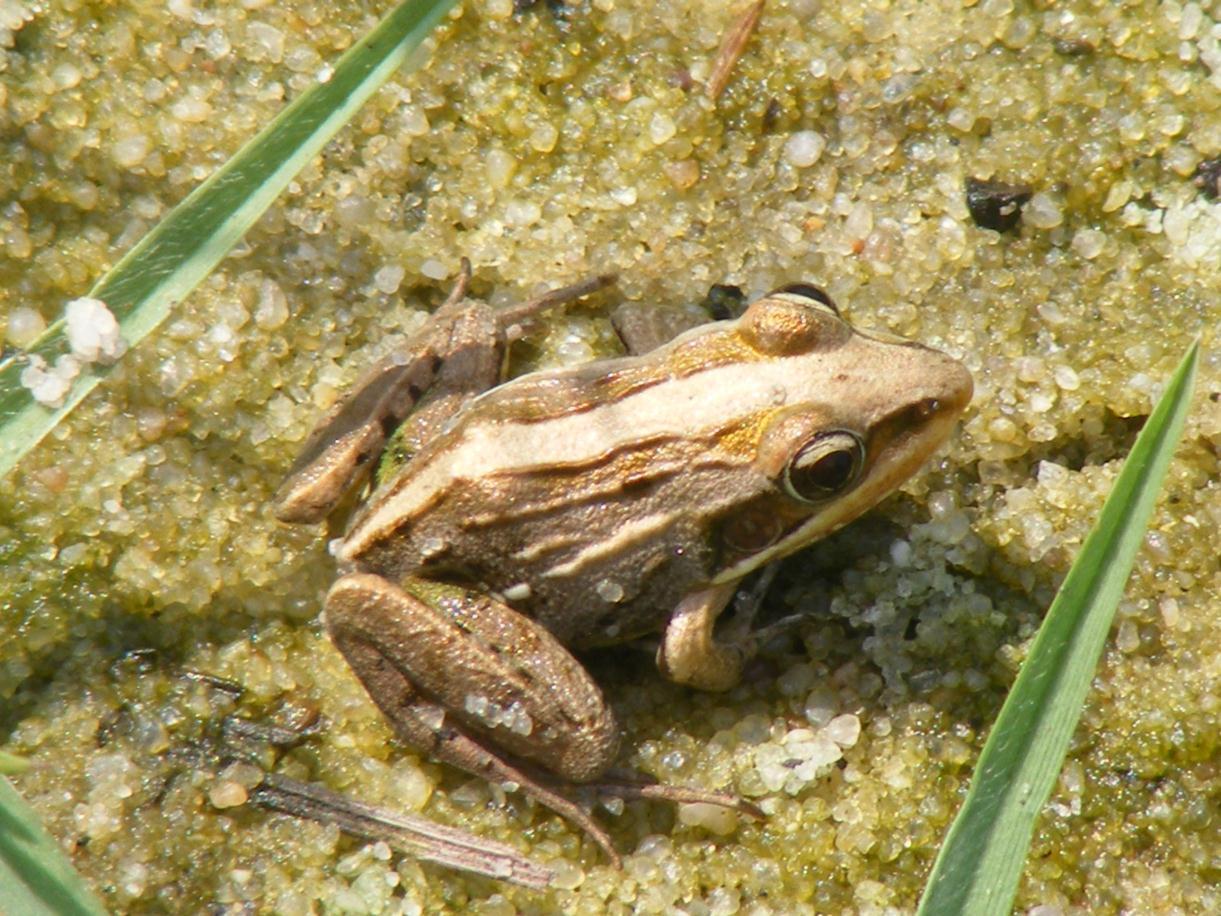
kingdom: Animalia
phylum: Chordata
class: Amphibia
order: Anura
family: Ptychadenidae
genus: Ptychadena
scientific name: Ptychadena mossambica
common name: Mozambique ridged frog
